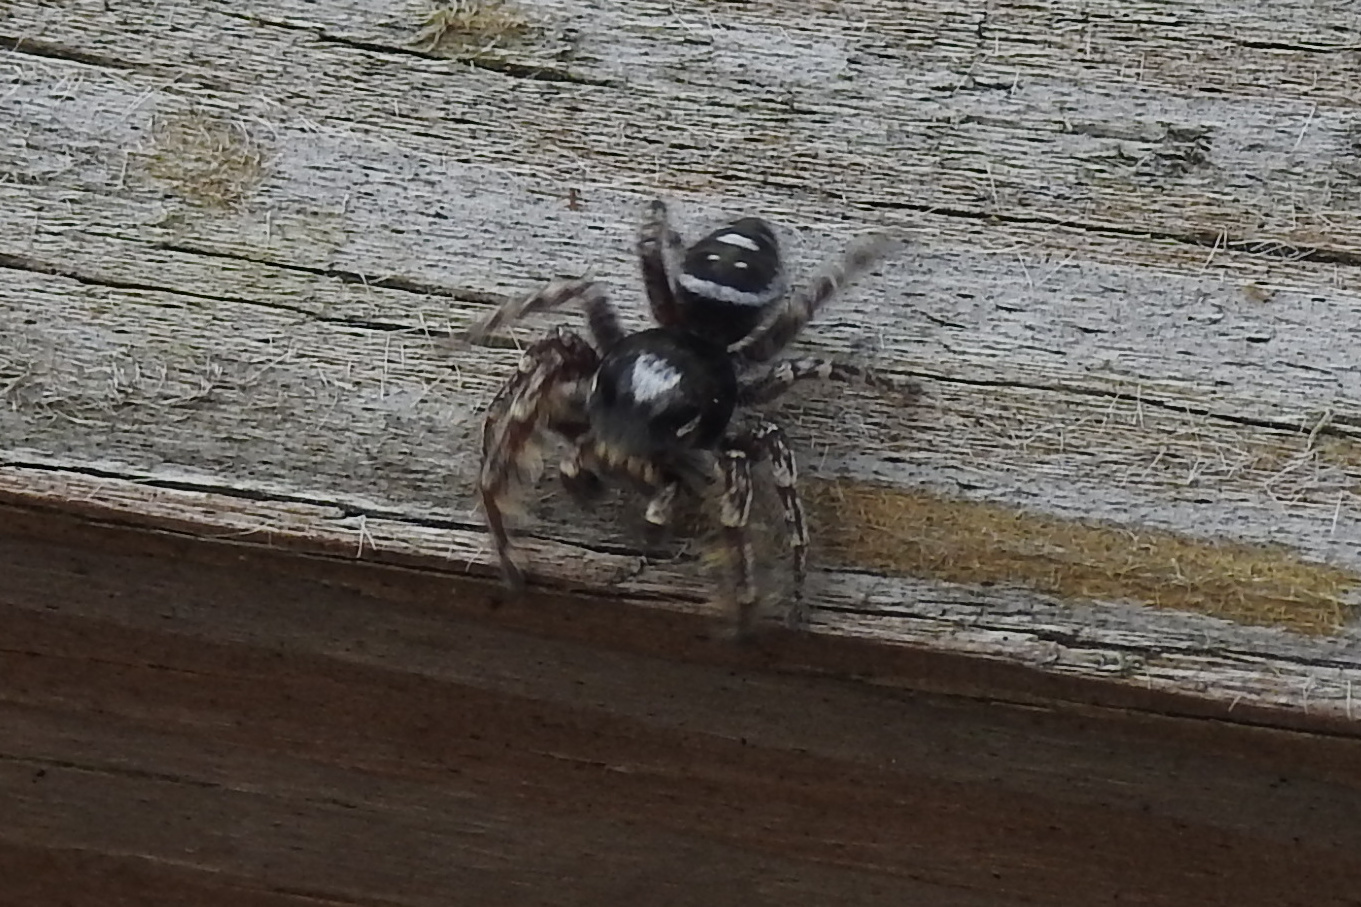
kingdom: Animalia
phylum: Arthropoda
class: Arachnida
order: Araneae
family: Salticidae
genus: Phidippus
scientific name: Phidippus putnami
